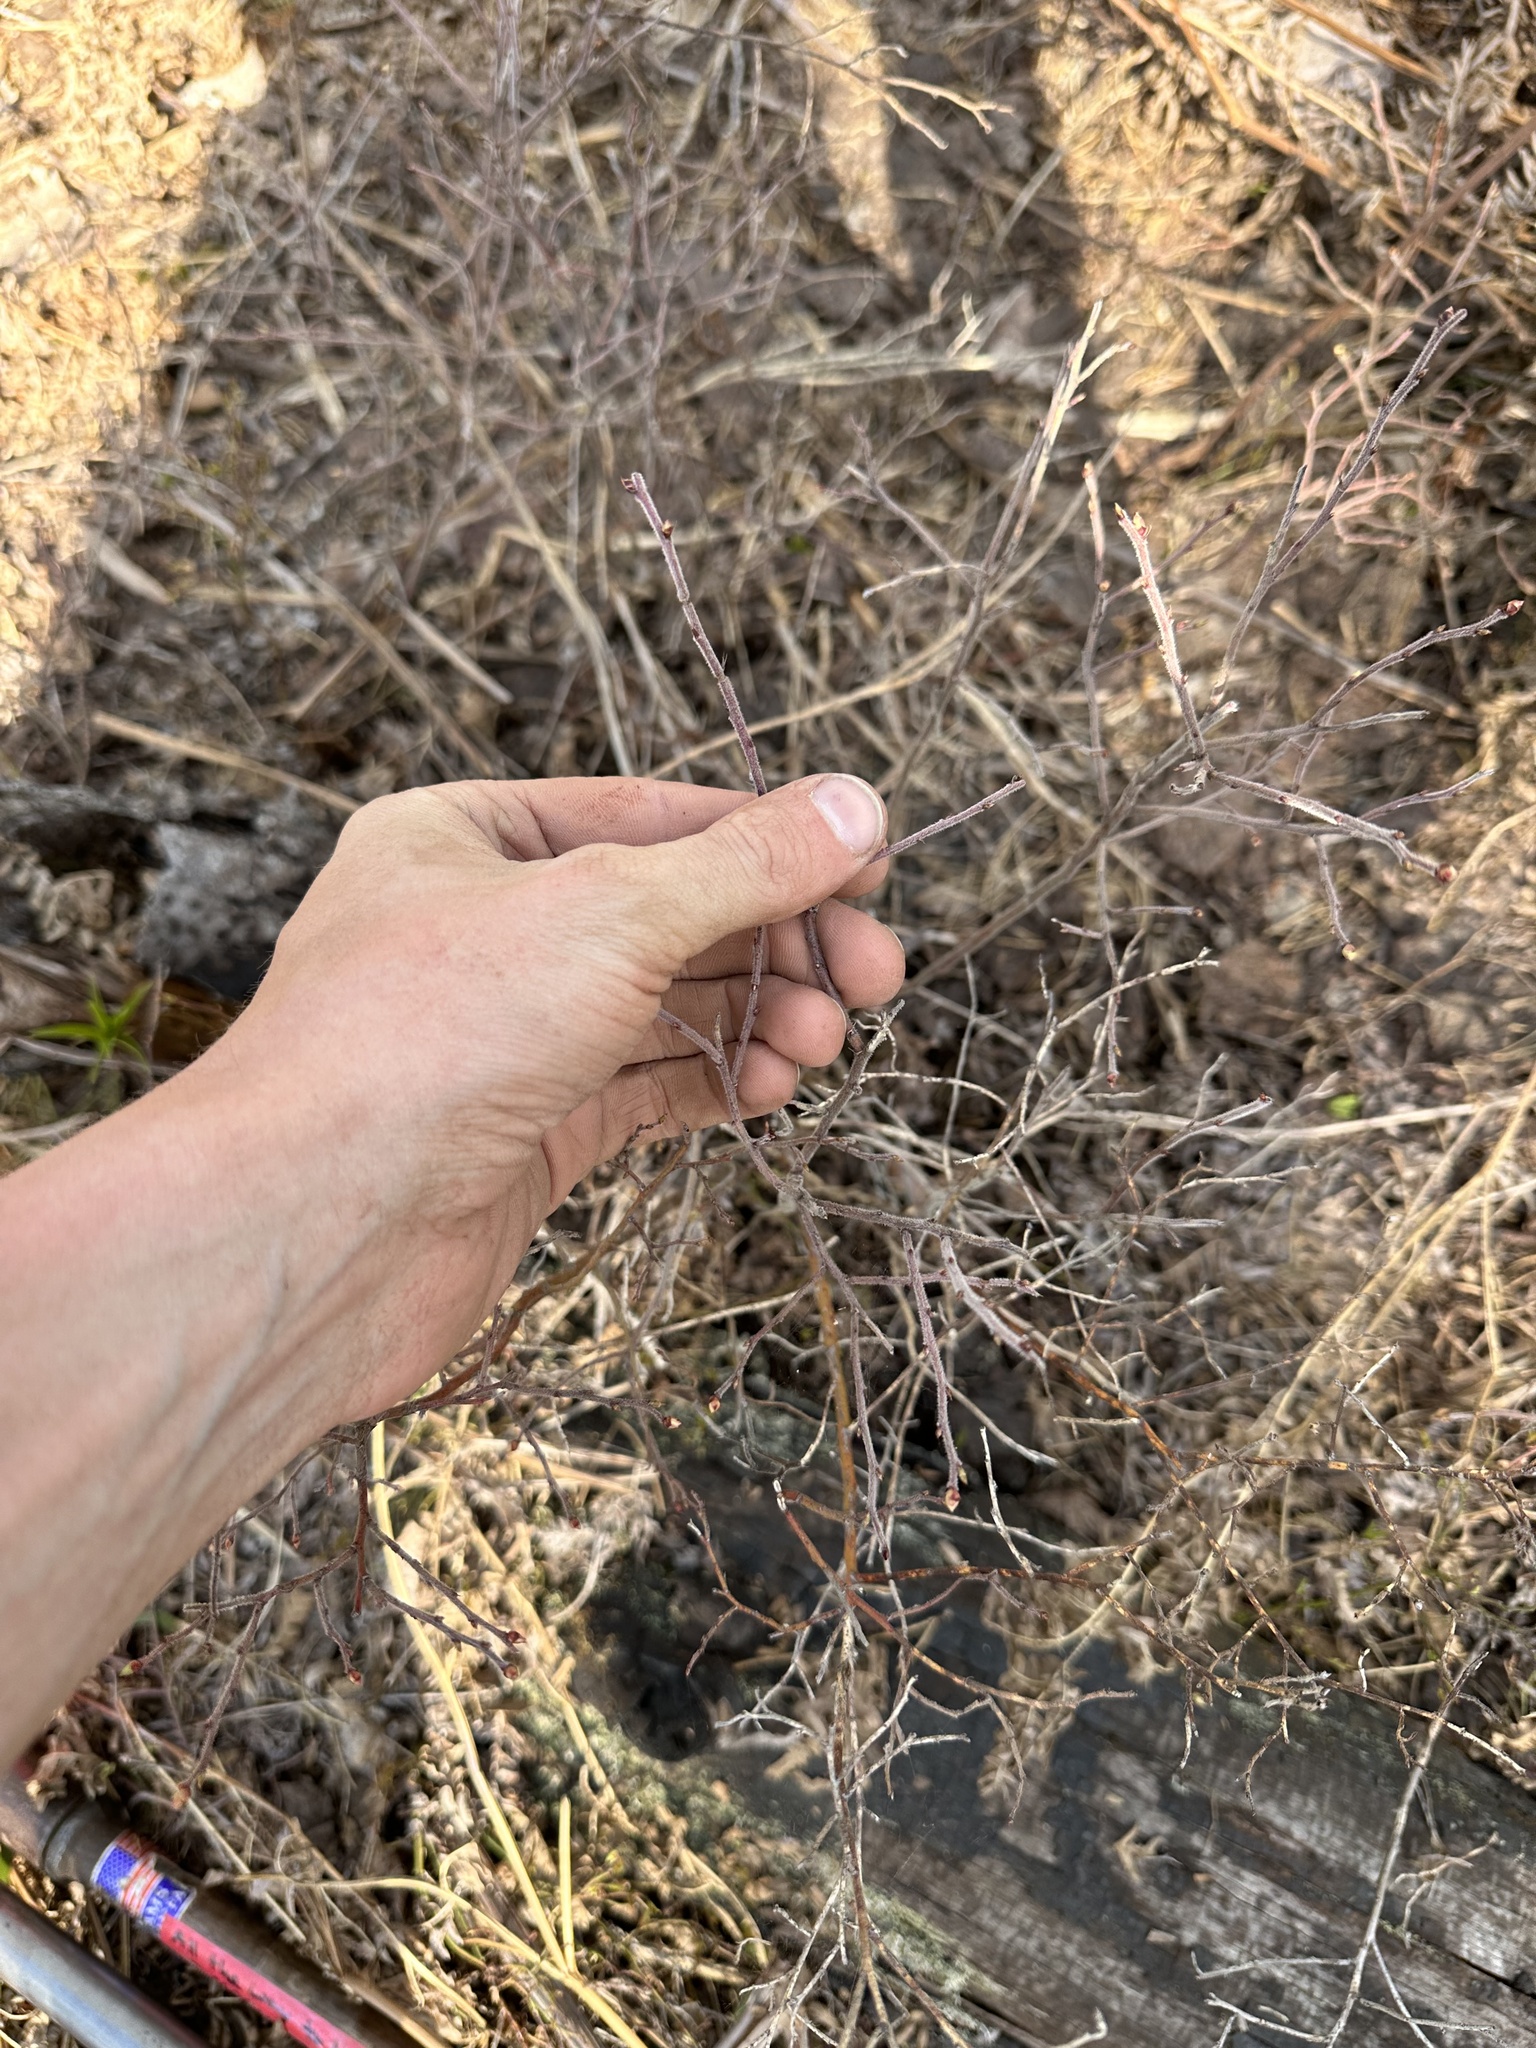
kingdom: Plantae
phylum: Tracheophyta
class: Magnoliopsida
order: Ericales
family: Ericaceae
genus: Vaccinium
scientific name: Vaccinium myrtilloides
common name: Canada blueberry
